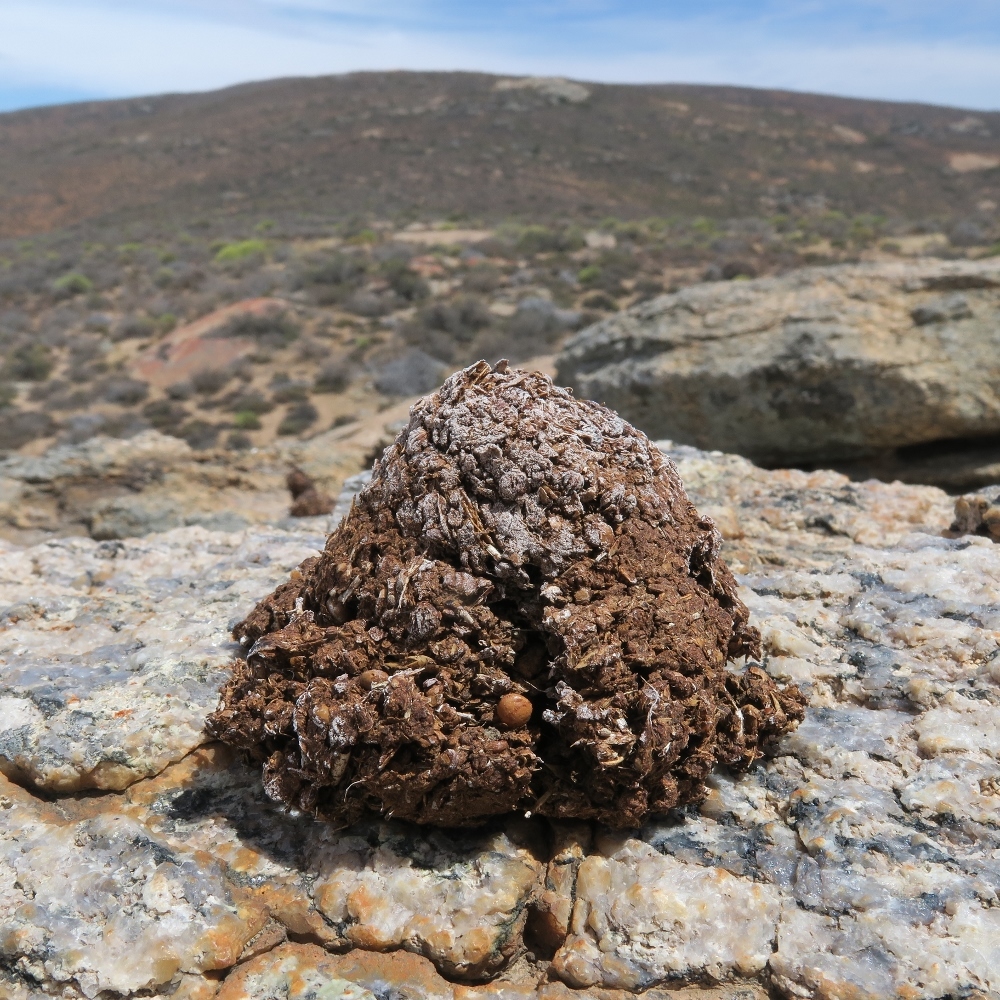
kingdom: Animalia
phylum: Chordata
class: Mammalia
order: Primates
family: Cercopithecidae
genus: Papio
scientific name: Papio ursinus
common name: Chacma baboon
